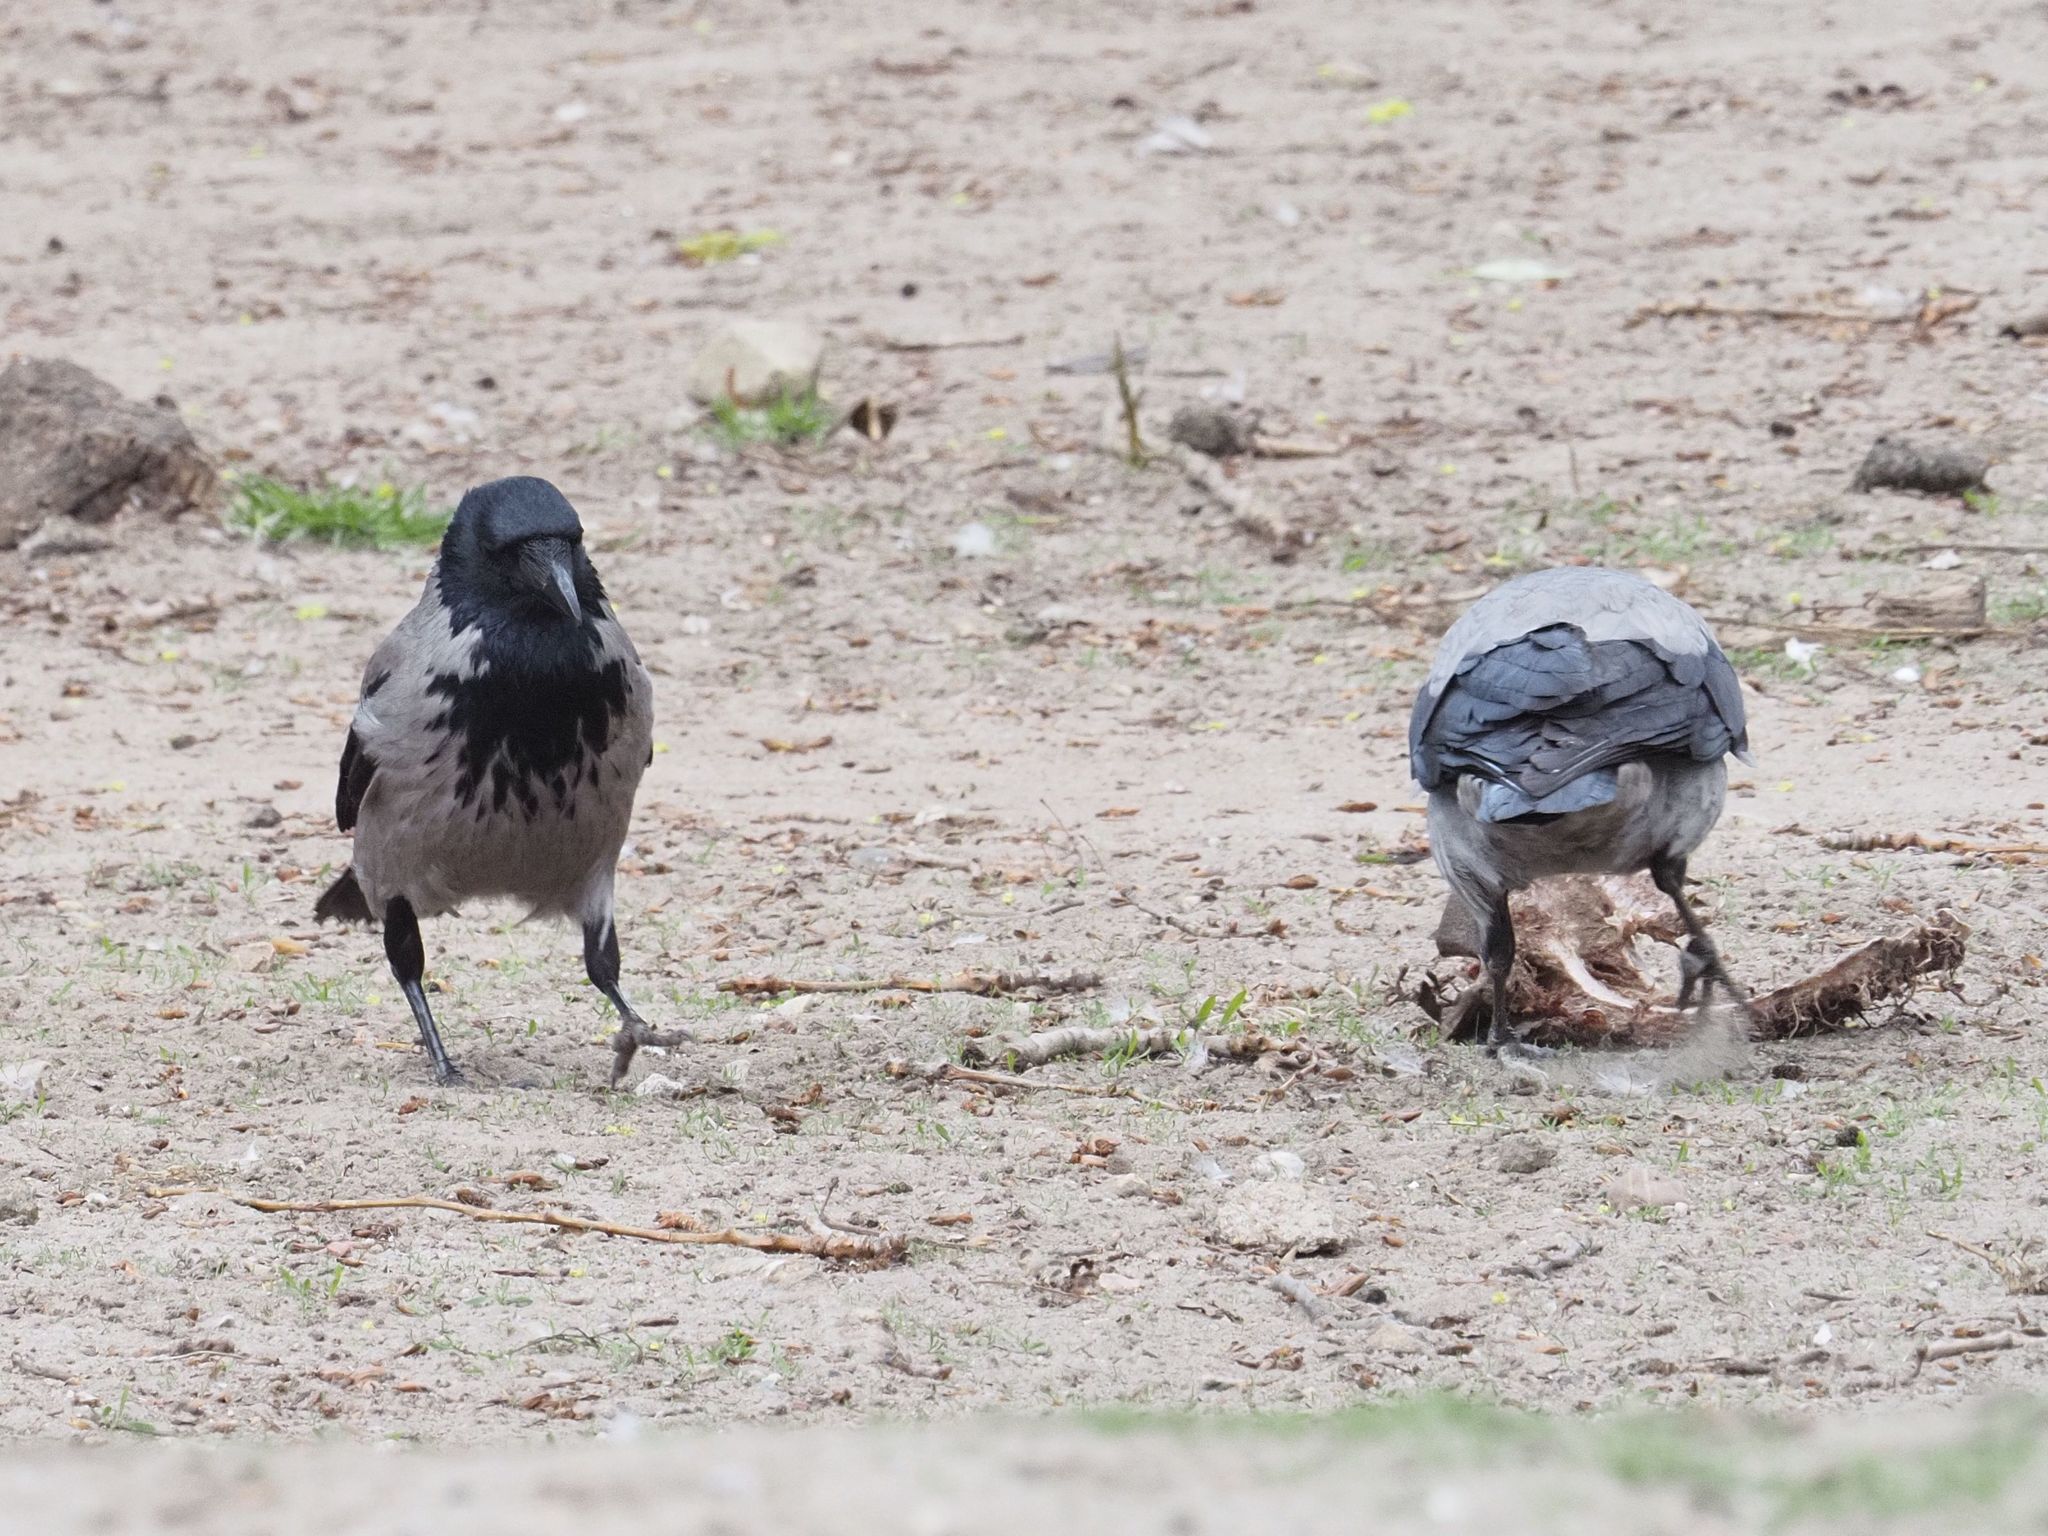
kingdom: Animalia
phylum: Chordata
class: Aves
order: Passeriformes
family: Corvidae
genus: Corvus
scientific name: Corvus cornix
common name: Hooded crow
